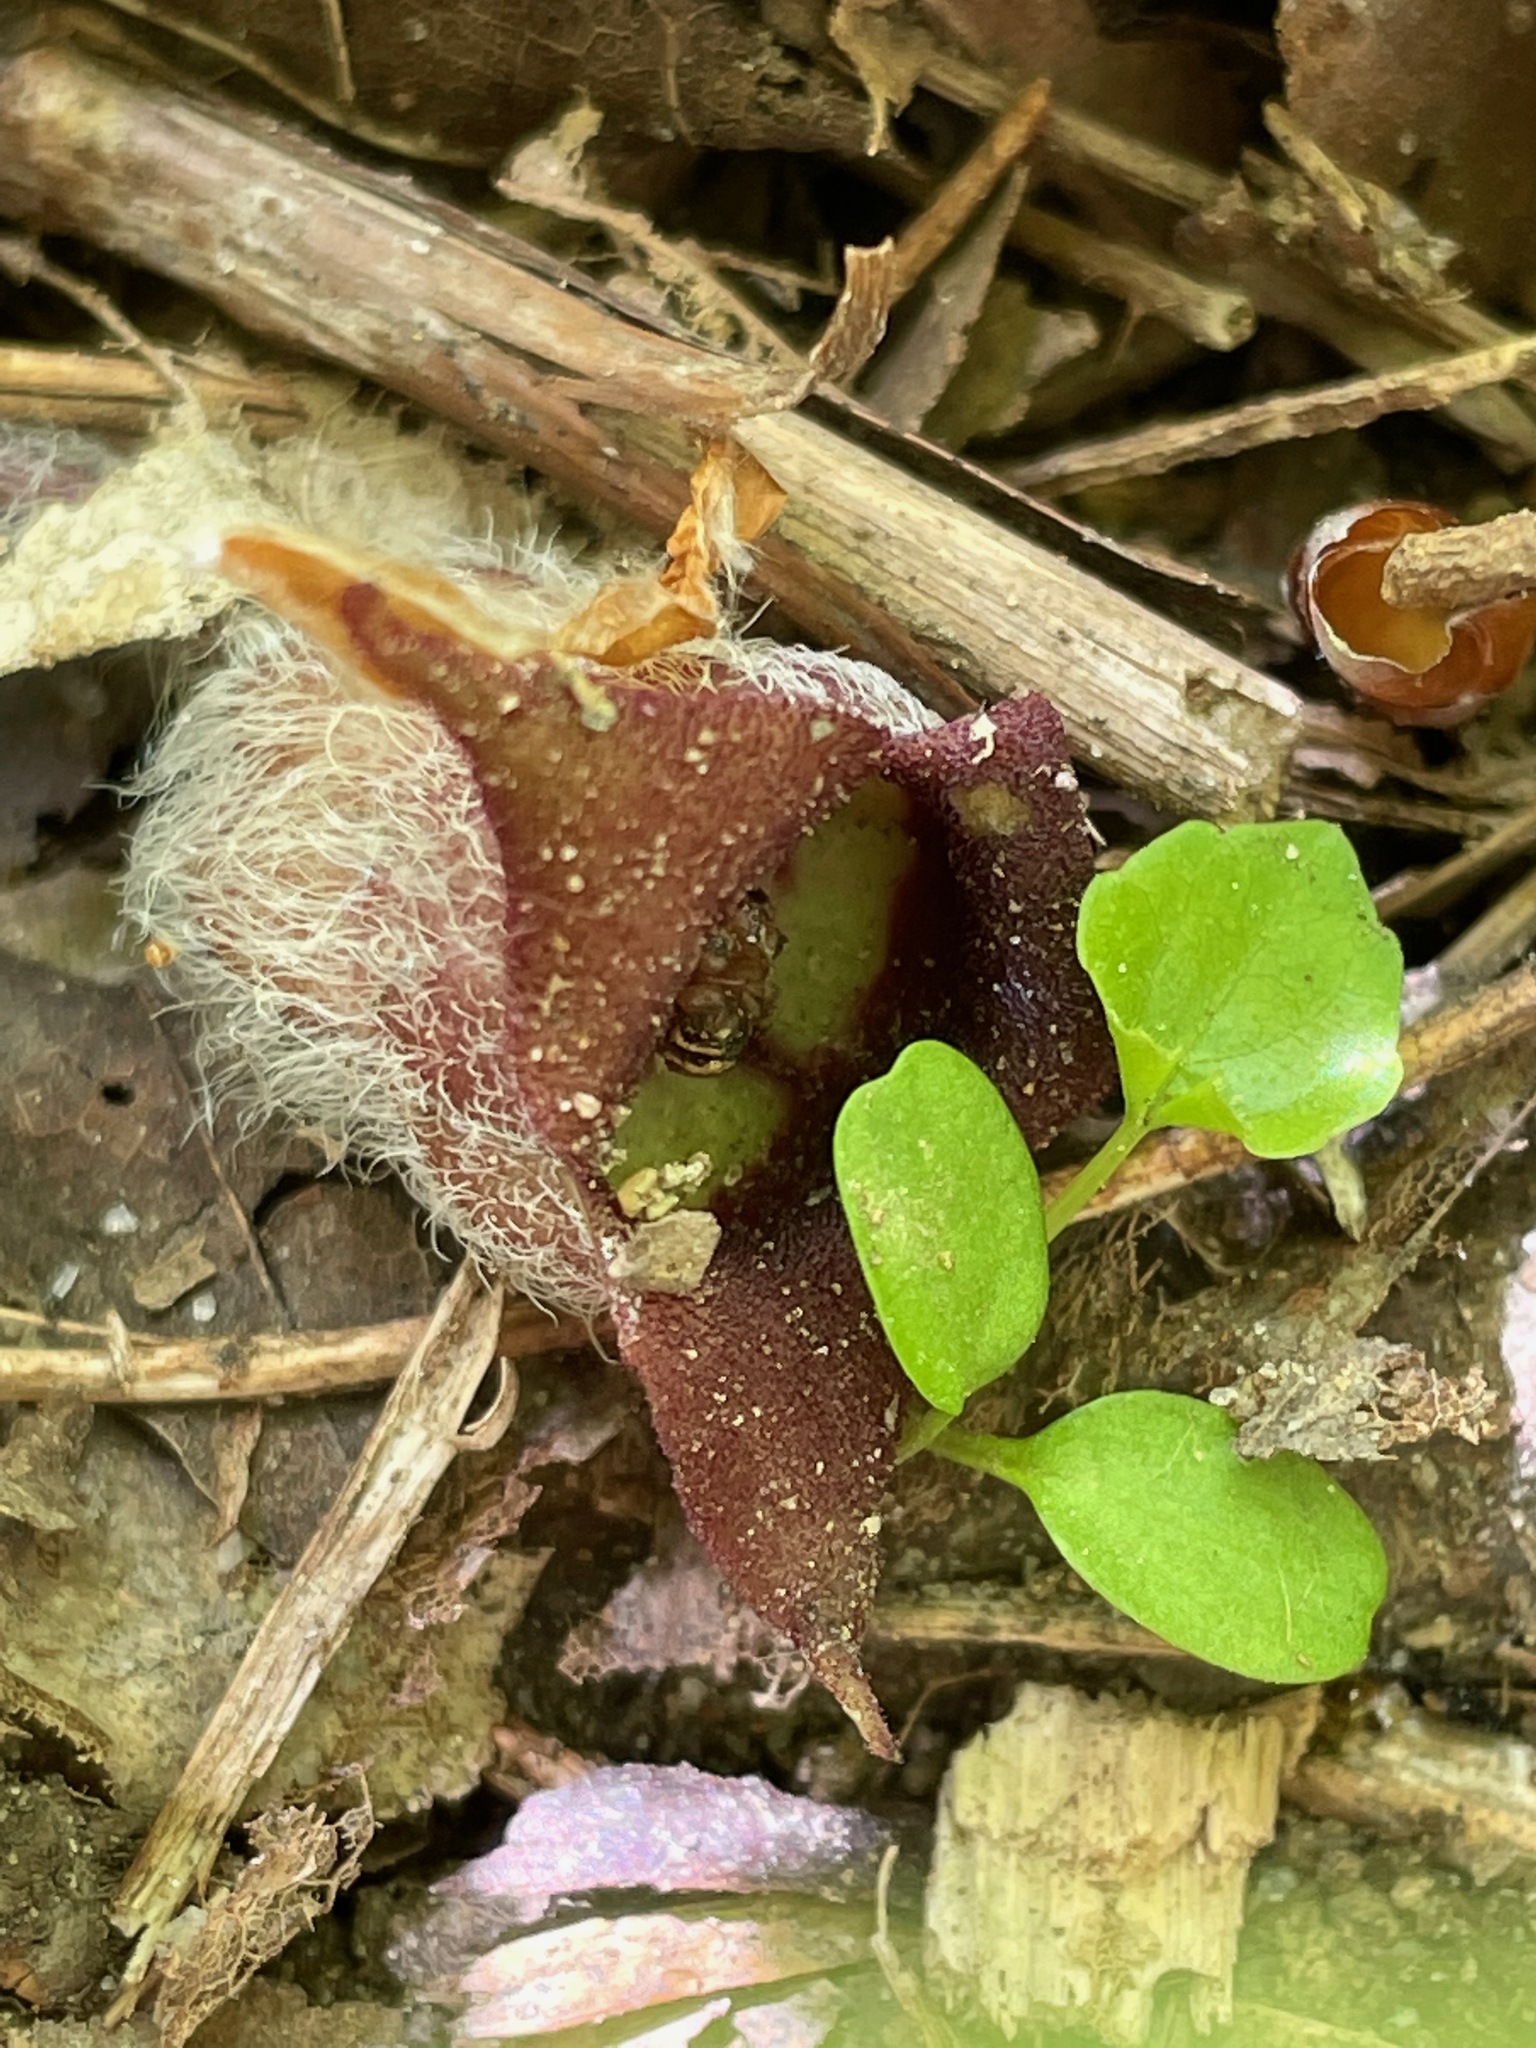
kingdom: Plantae
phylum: Tracheophyta
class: Magnoliopsida
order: Piperales
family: Aristolochiaceae
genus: Asarum
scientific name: Asarum canadense
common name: Wild ginger
